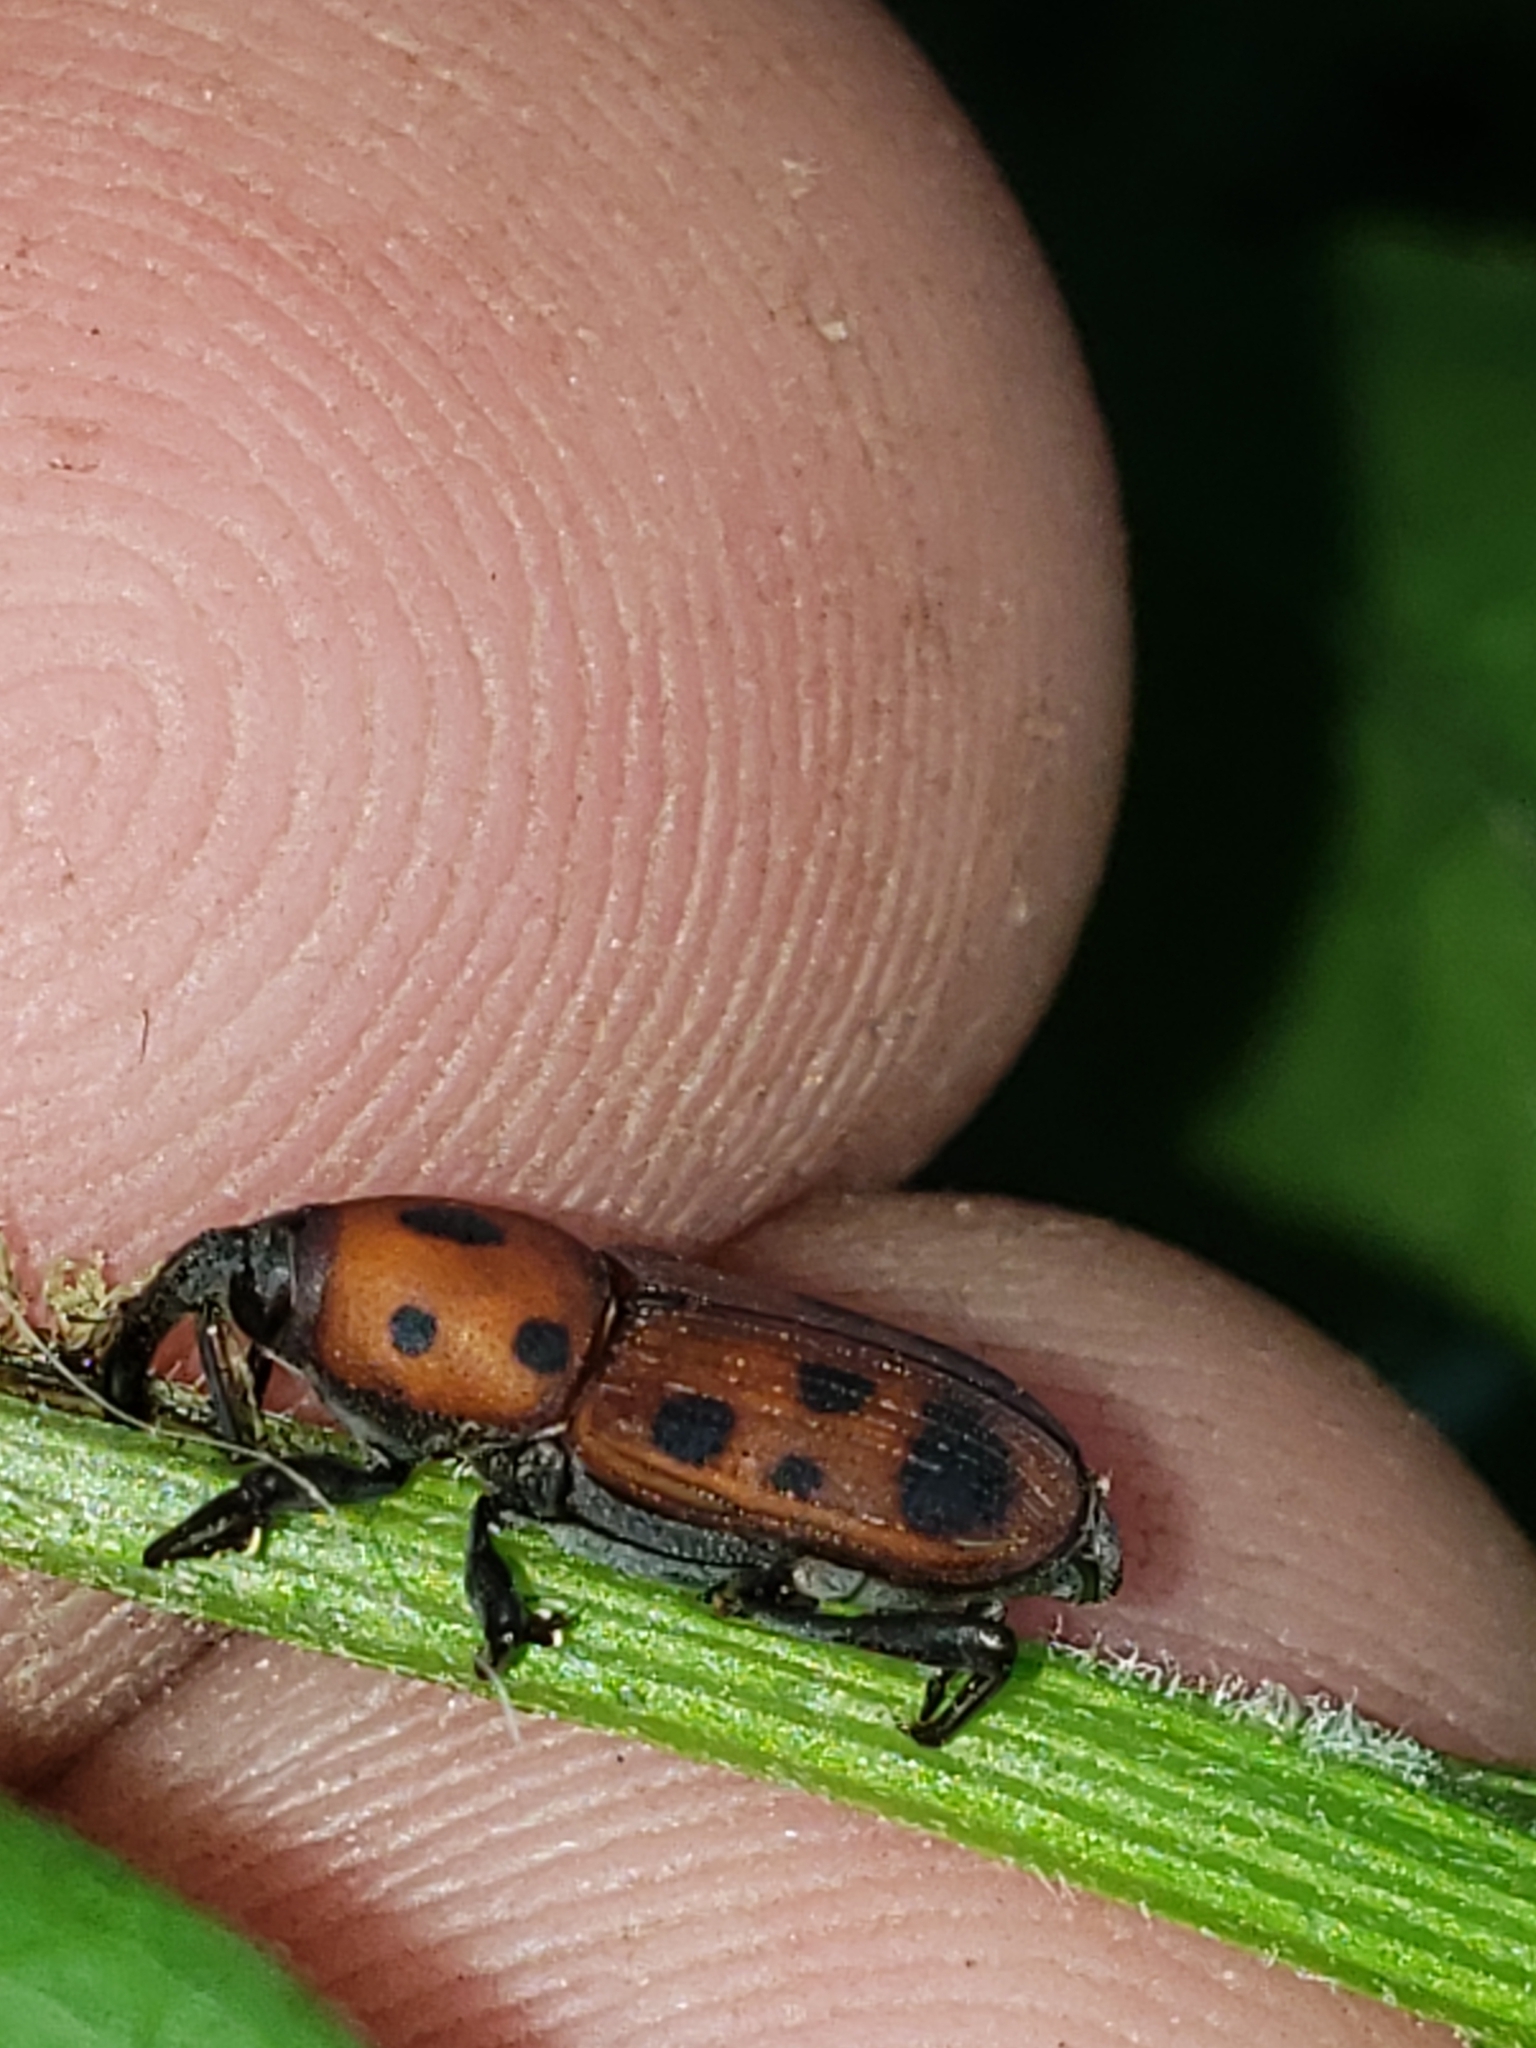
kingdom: Animalia
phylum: Arthropoda
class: Insecta
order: Coleoptera
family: Dryophthoridae
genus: Rhodobaenus
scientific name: Rhodobaenus tredecimpunctatus
